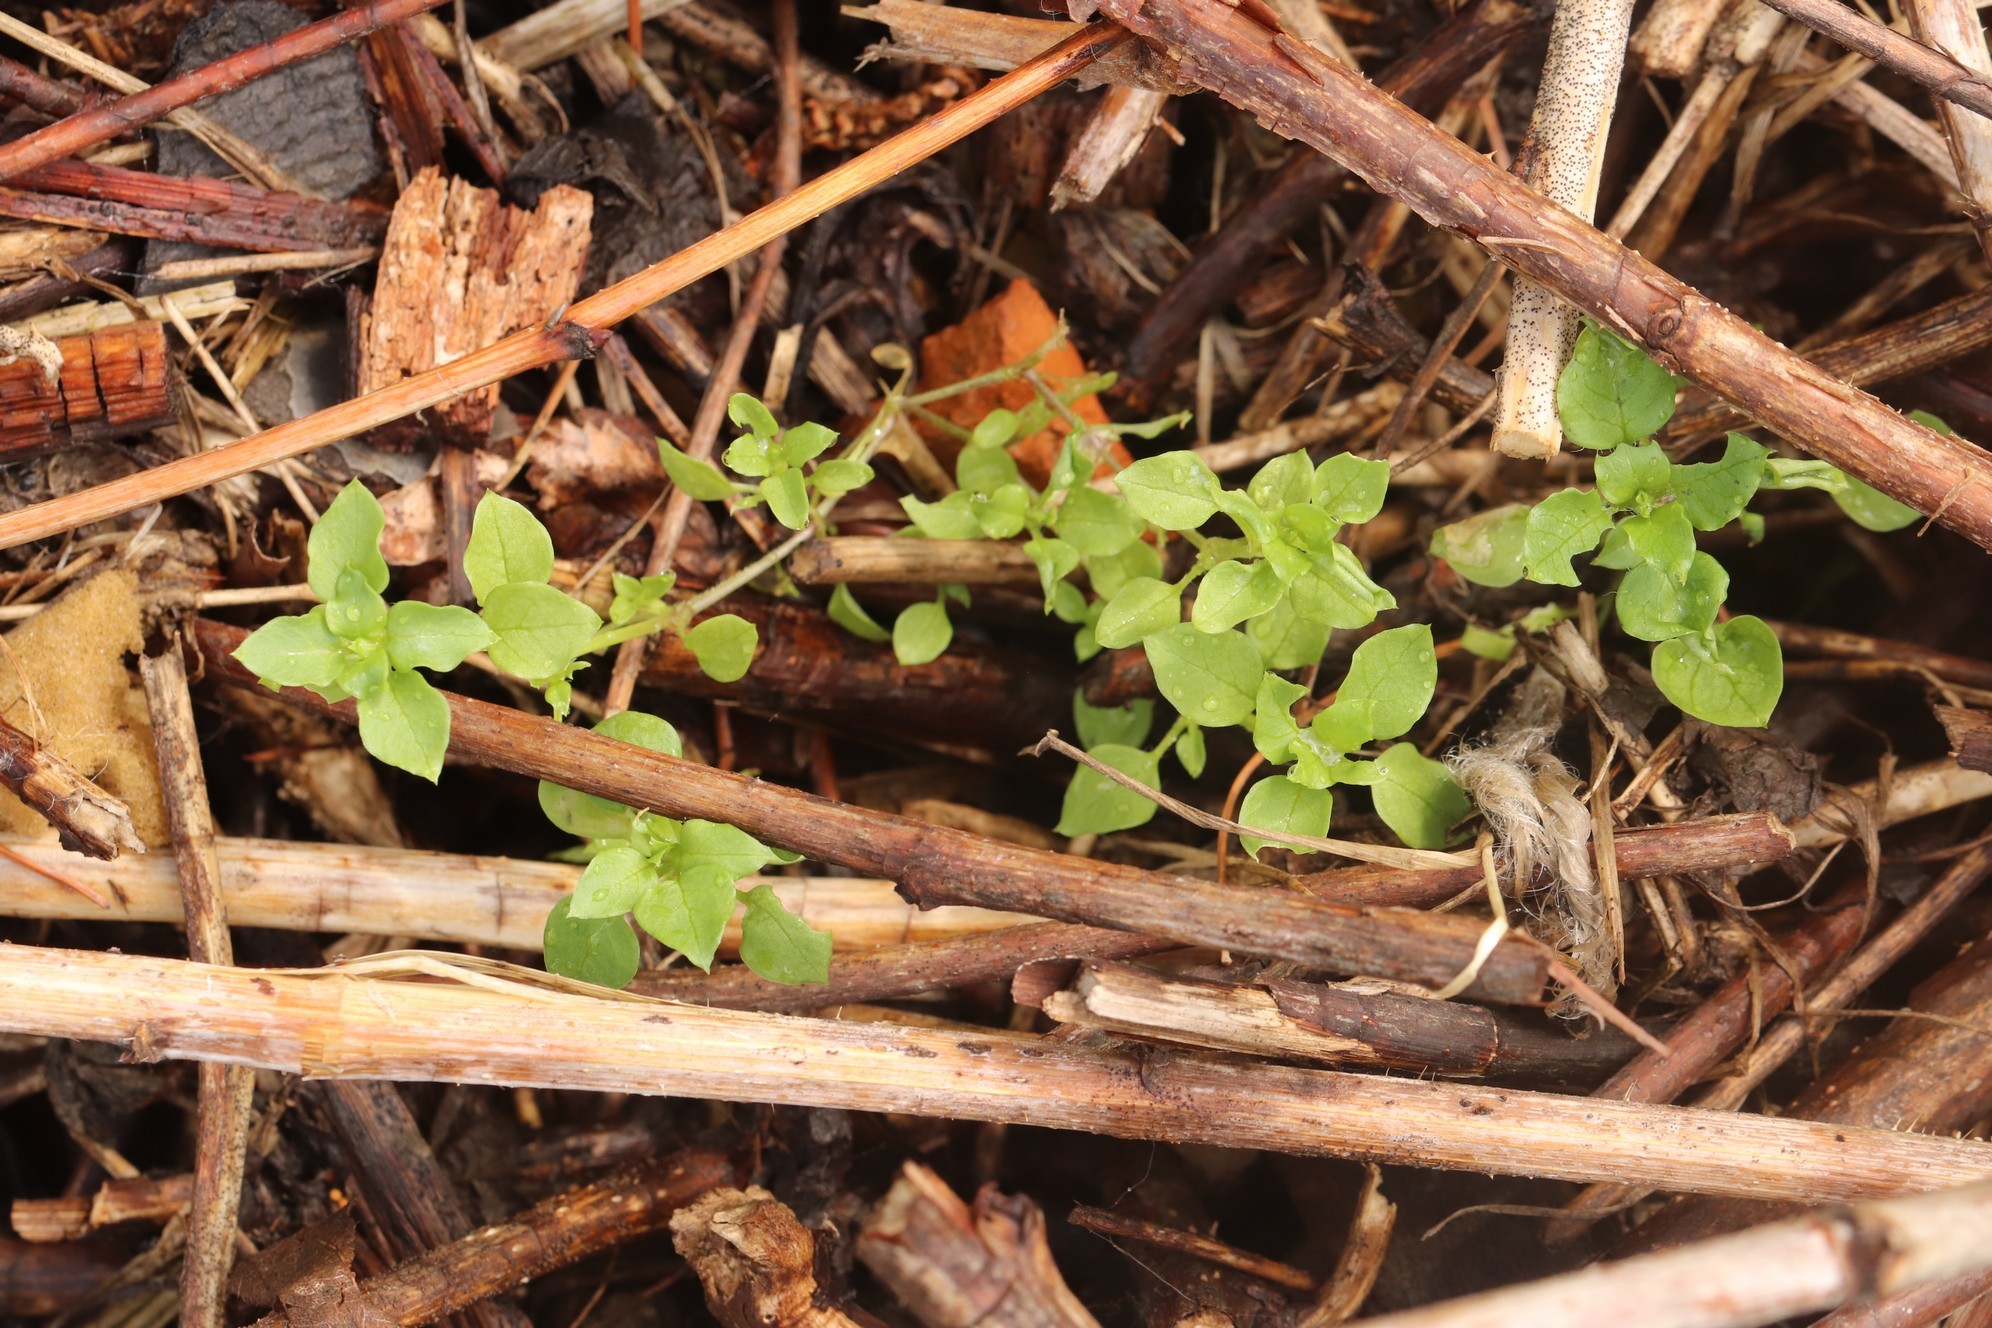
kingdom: Plantae
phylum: Tracheophyta
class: Magnoliopsida
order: Caryophyllales
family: Caryophyllaceae
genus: Stellaria
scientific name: Stellaria media
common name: Common chickweed
